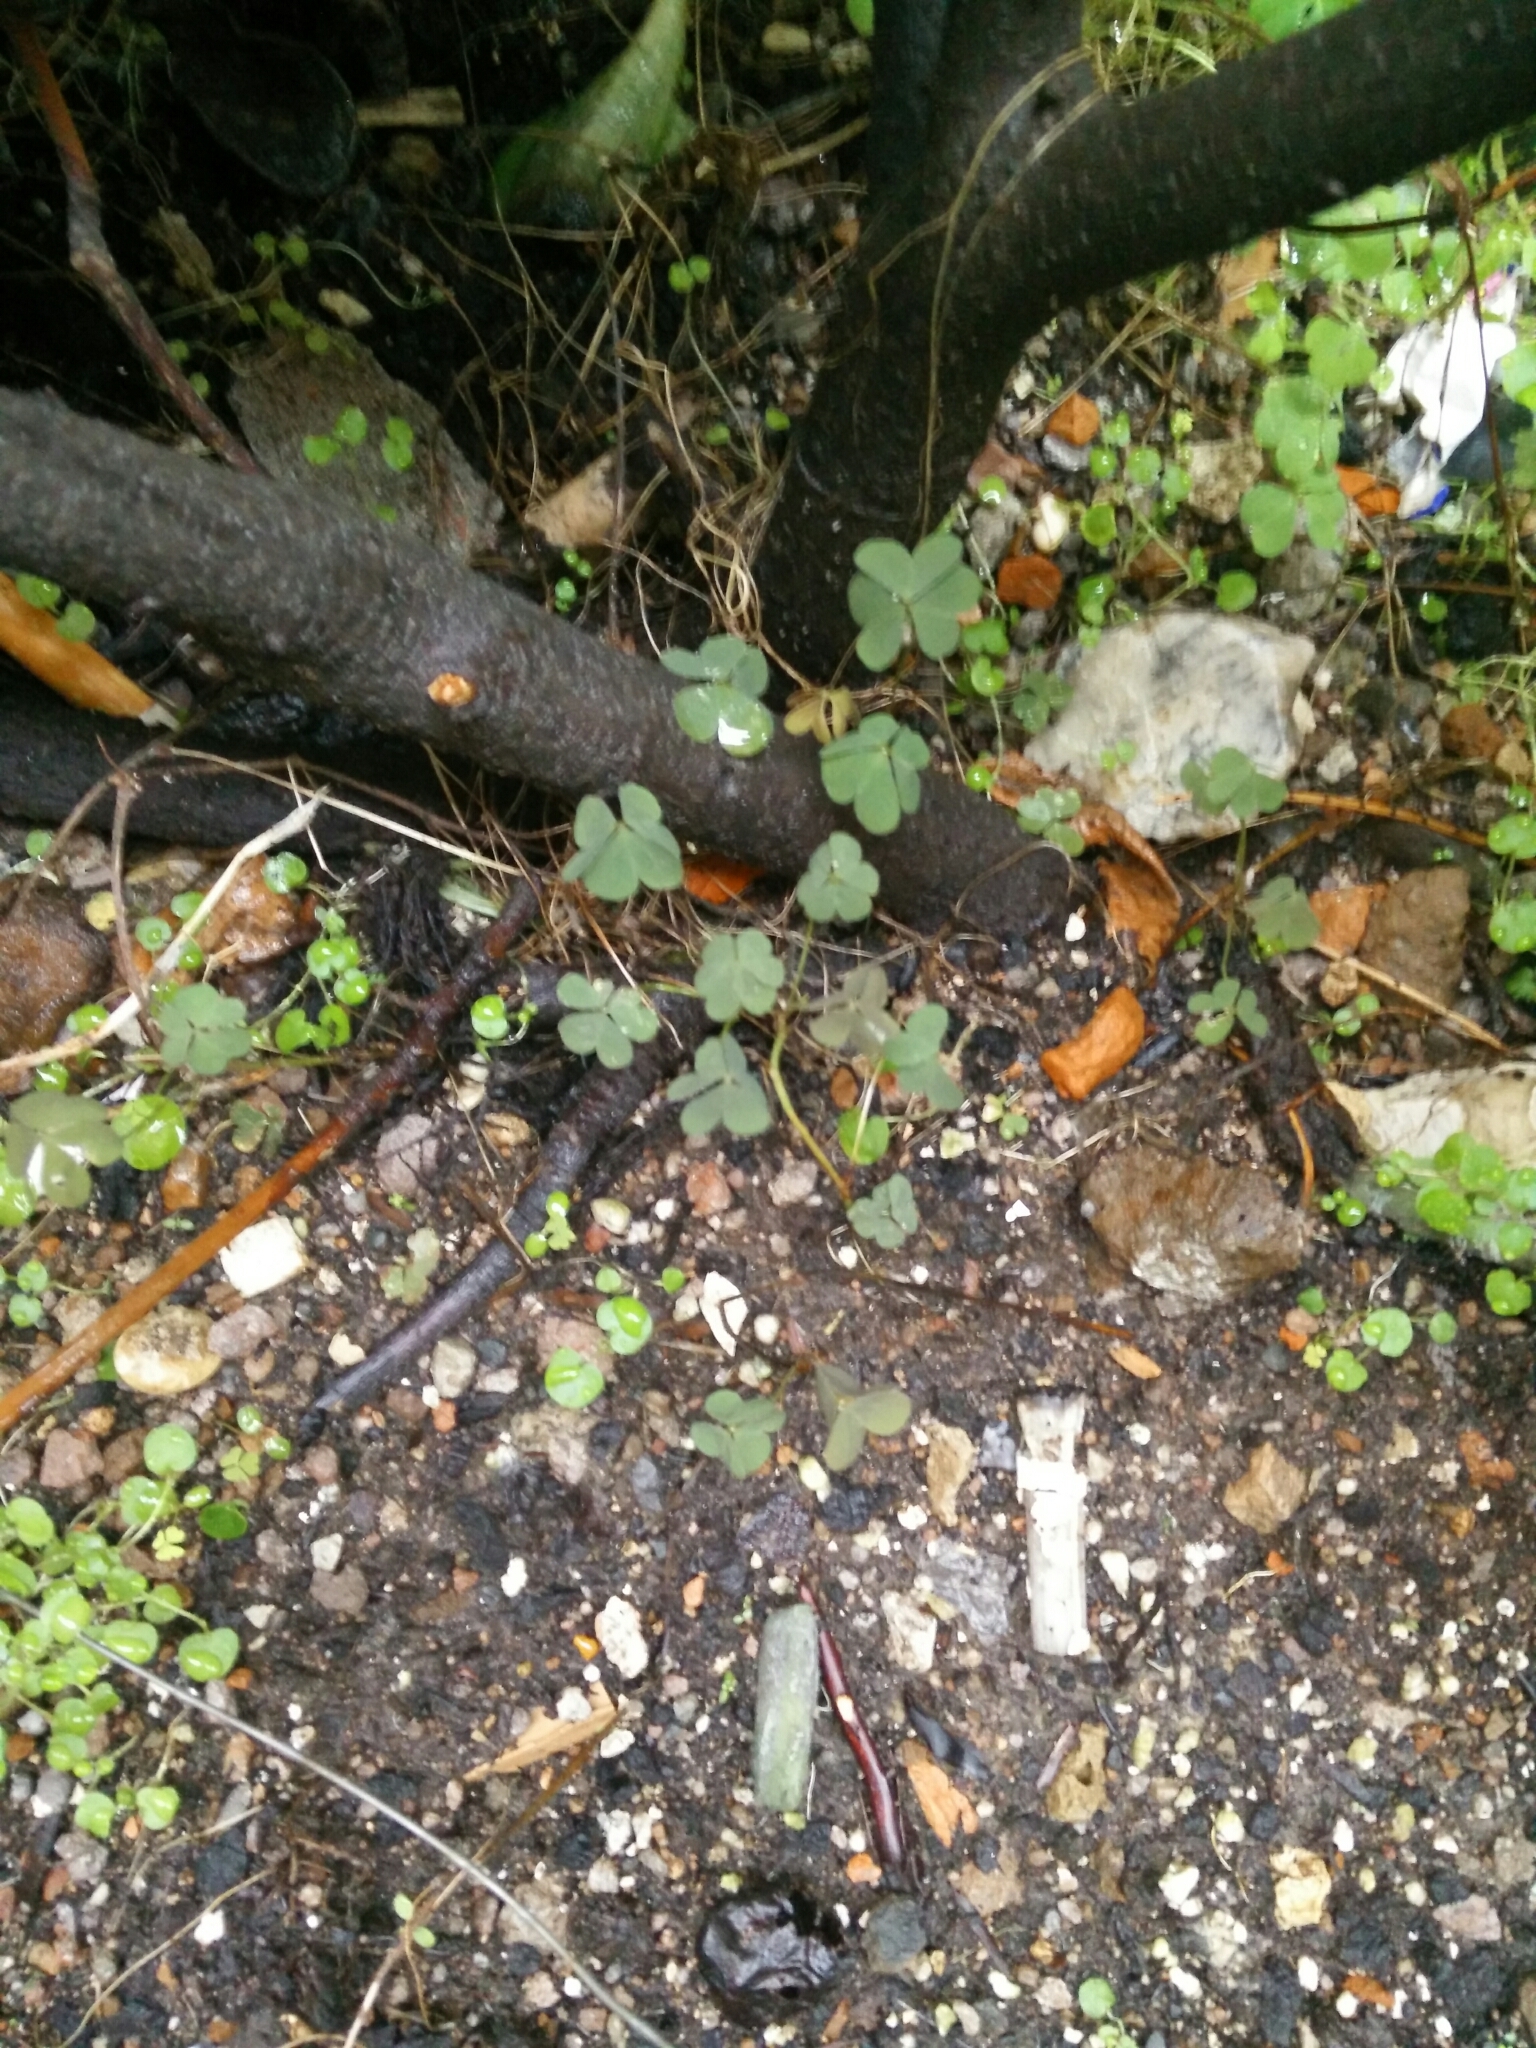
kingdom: Plantae
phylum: Tracheophyta
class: Magnoliopsida
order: Oxalidales
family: Oxalidaceae
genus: Oxalis
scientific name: Oxalis corniculata
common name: Procumbent yellow-sorrel
